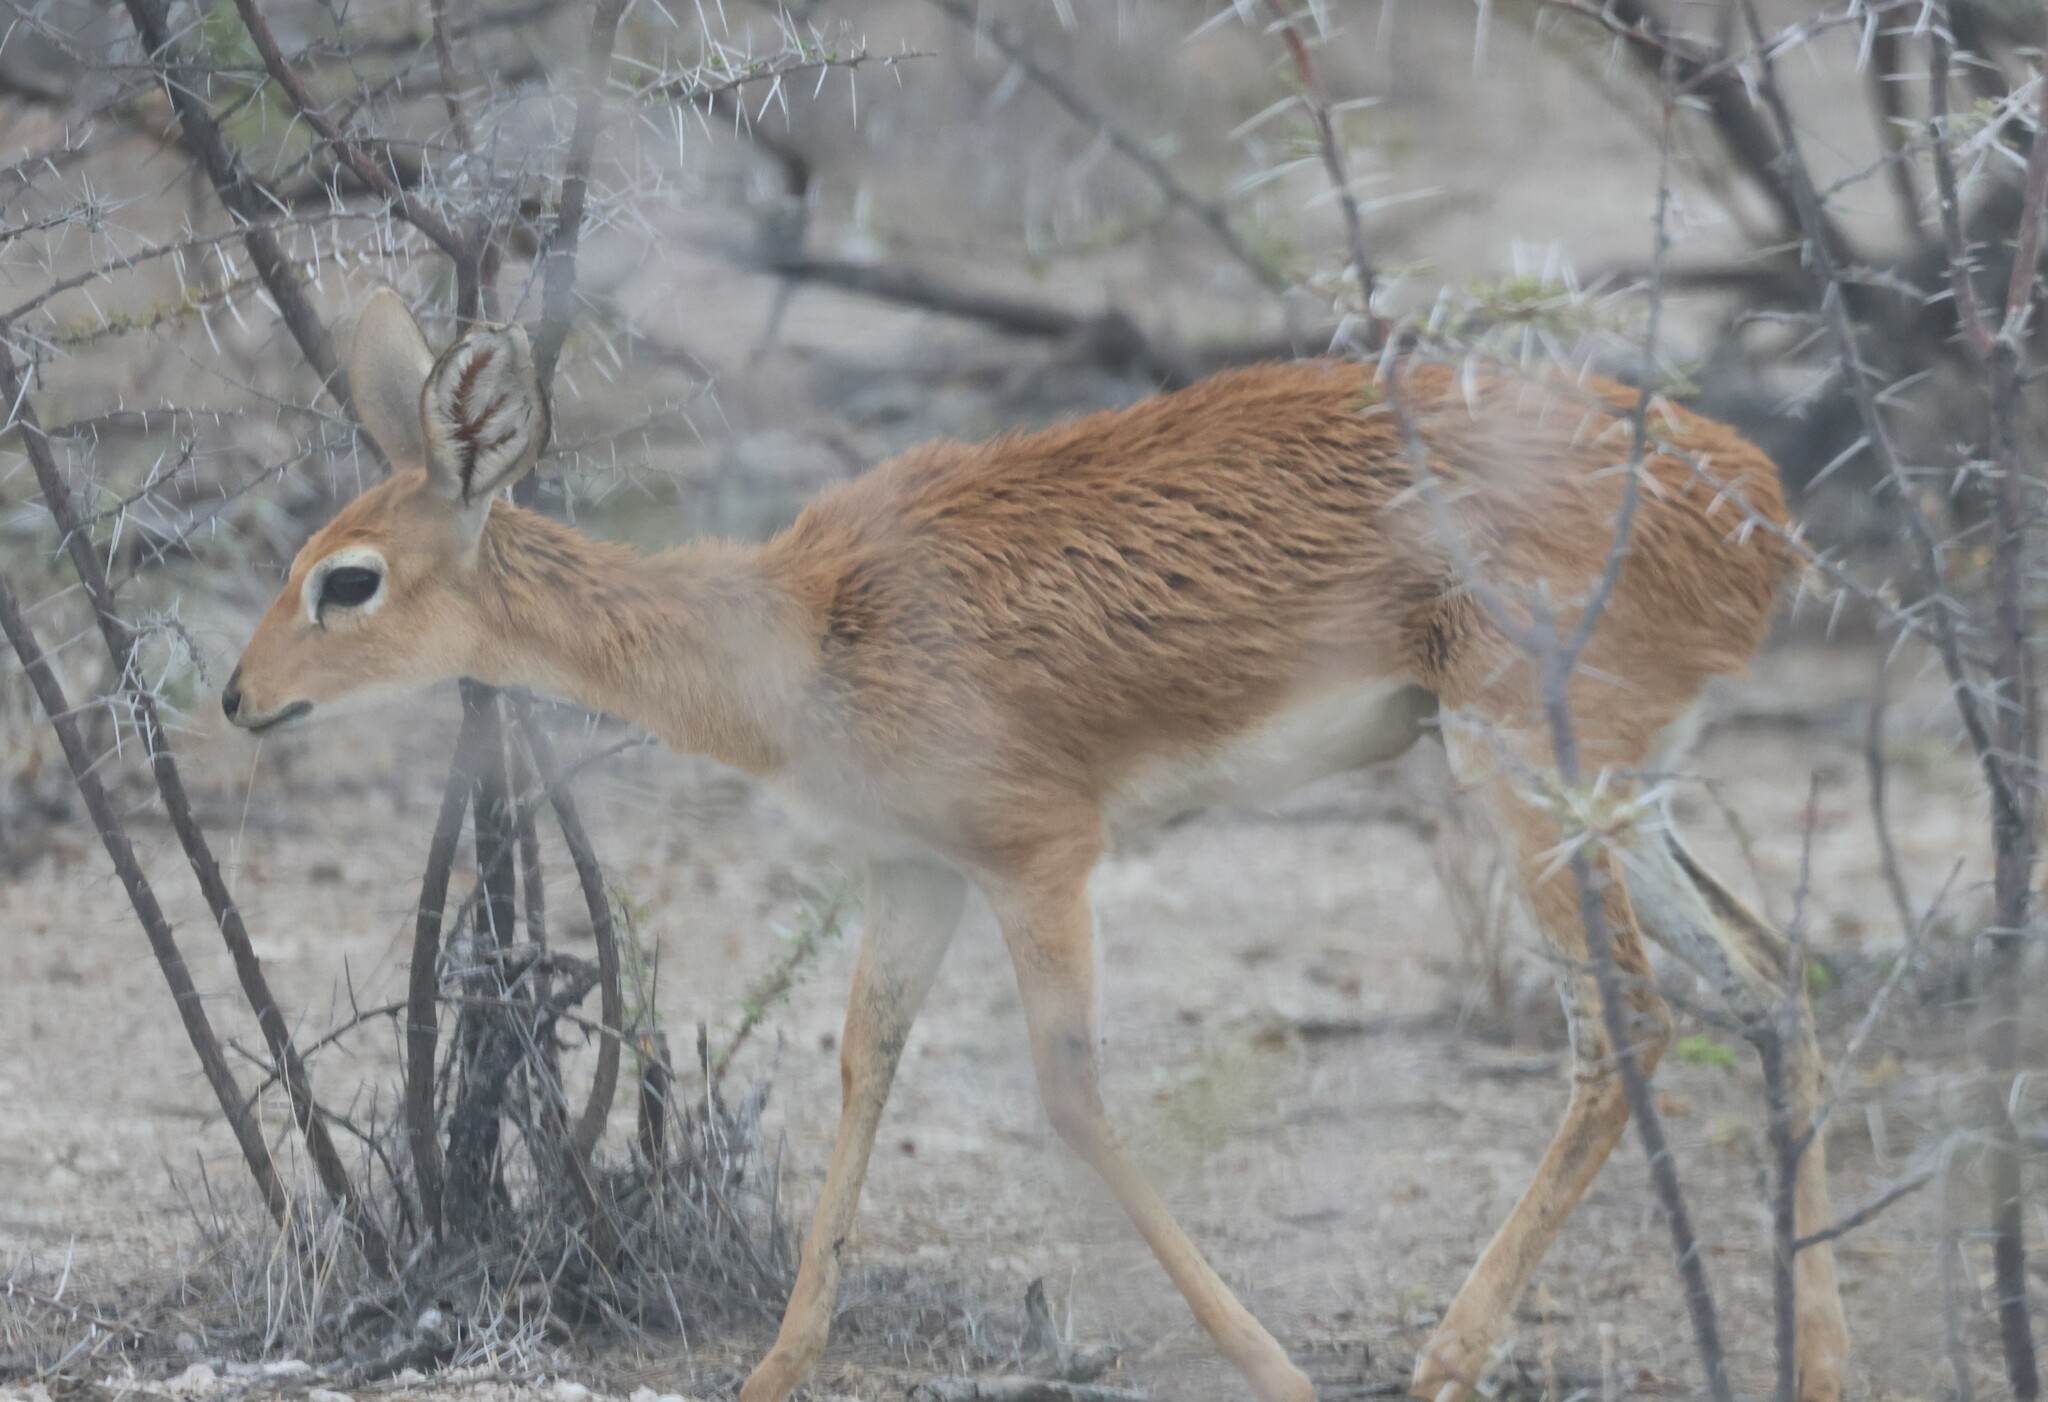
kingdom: Animalia
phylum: Chordata
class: Mammalia
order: Artiodactyla
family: Bovidae
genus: Raphicerus
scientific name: Raphicerus campestris
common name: Steenbok
